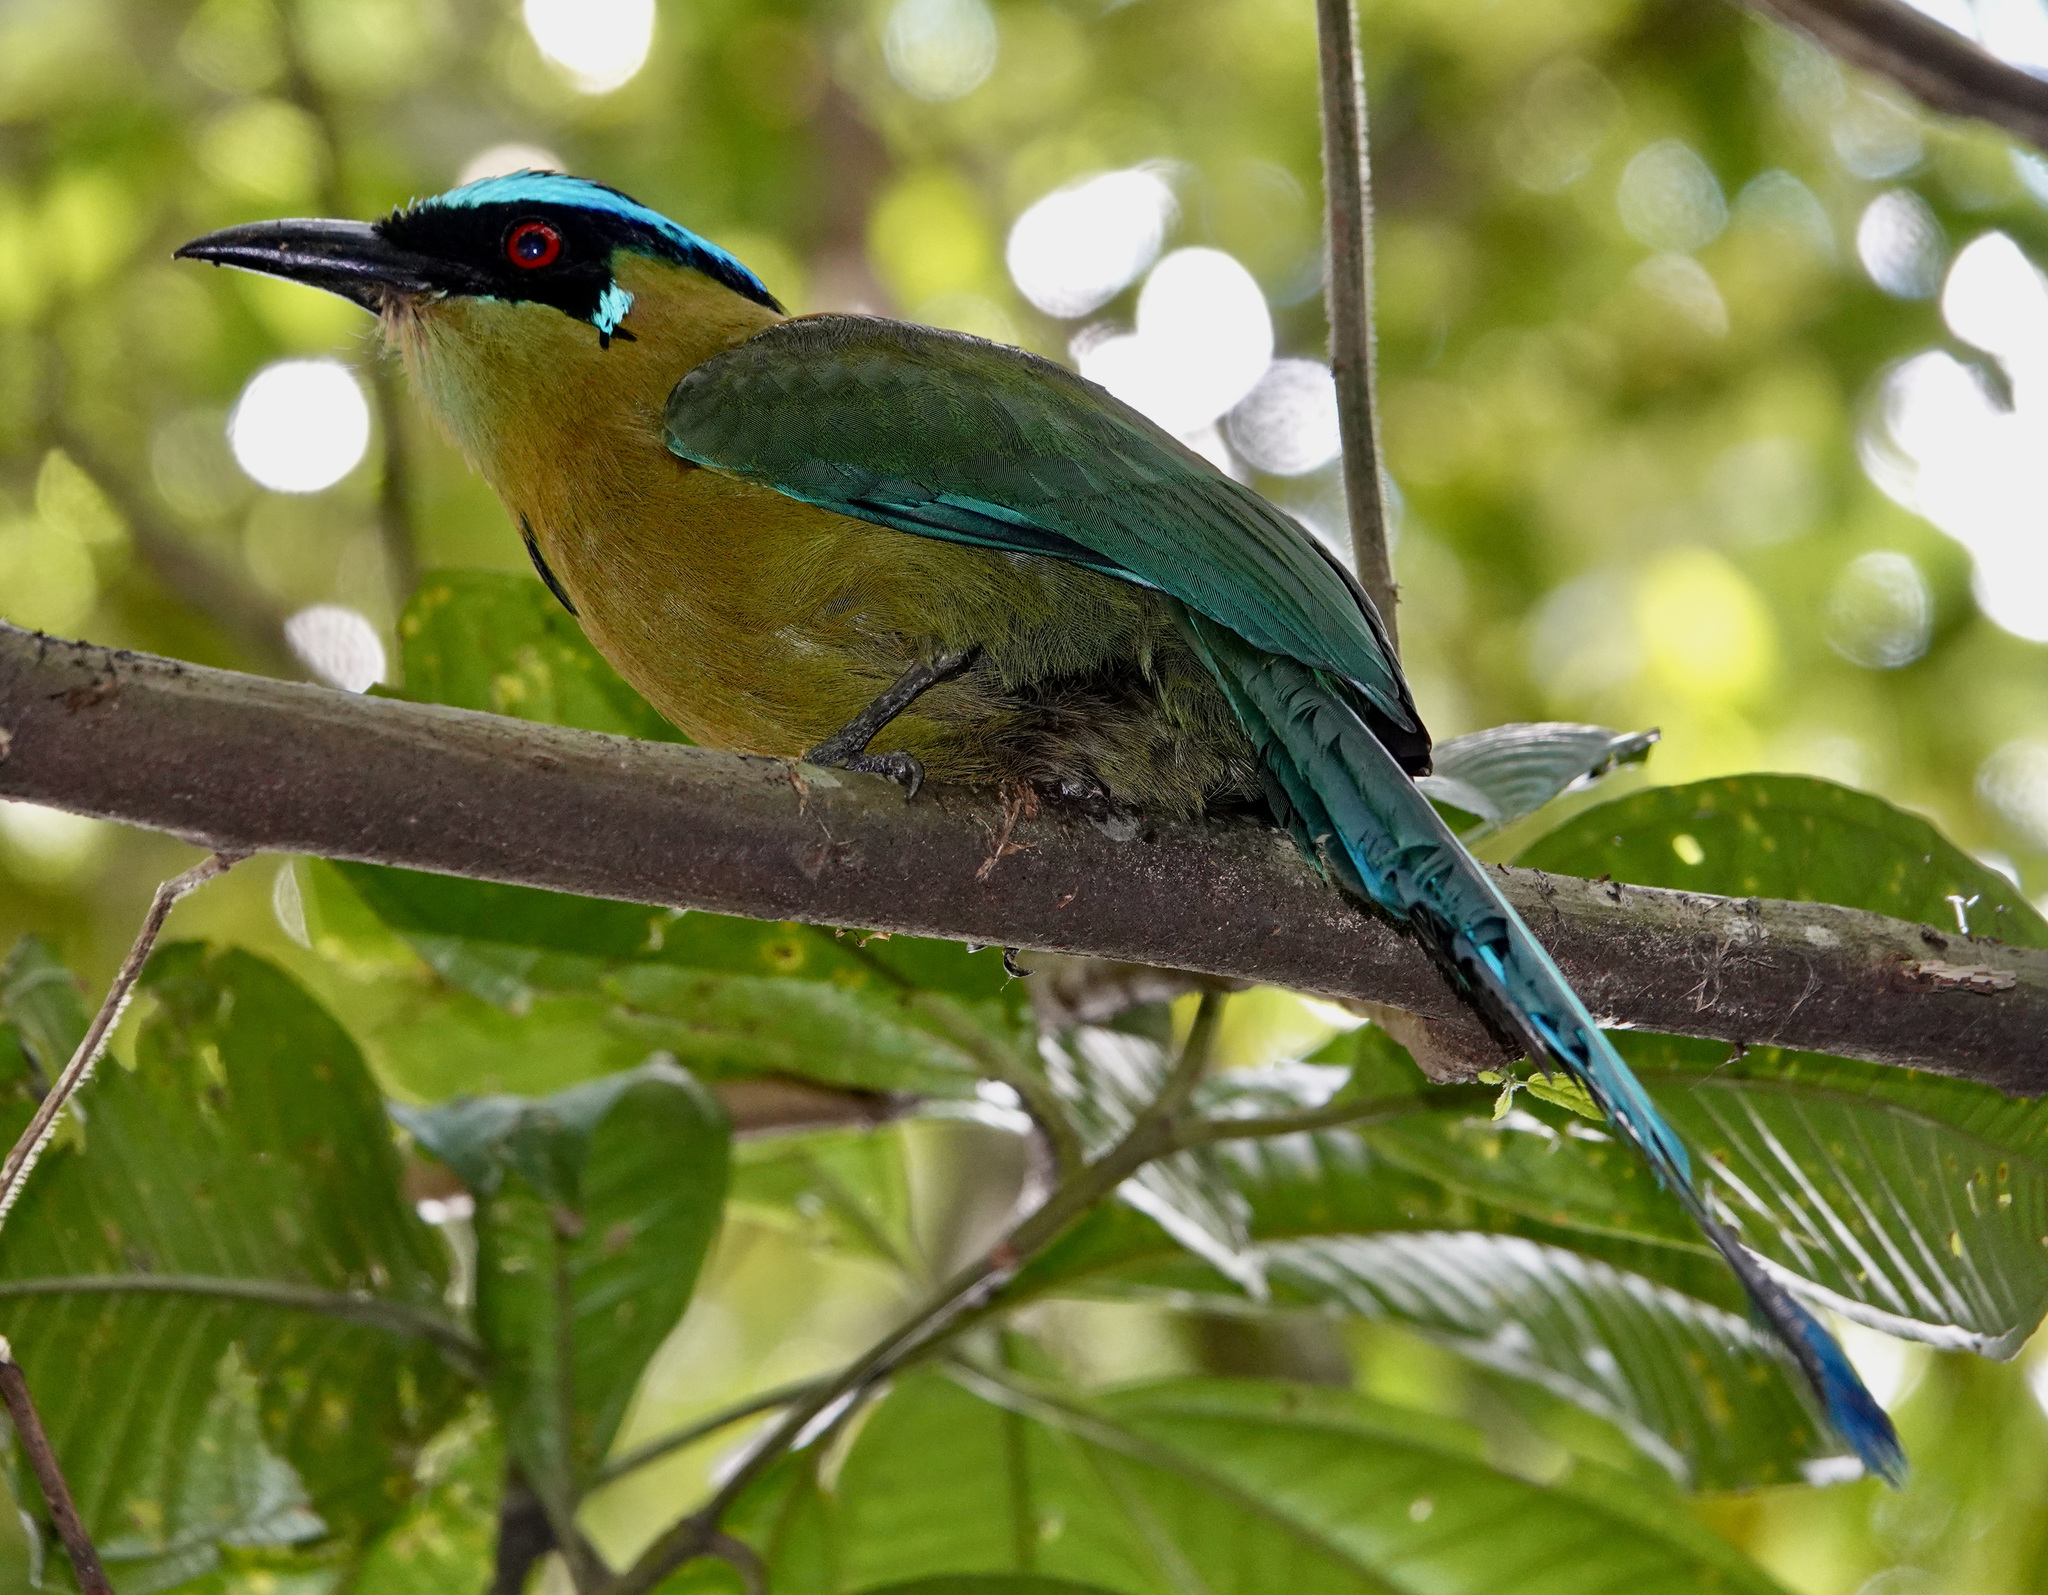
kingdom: Animalia
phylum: Chordata
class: Aves
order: Coraciiformes
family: Momotidae
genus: Momotus
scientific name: Momotus aequatorialis
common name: Andean motmot
